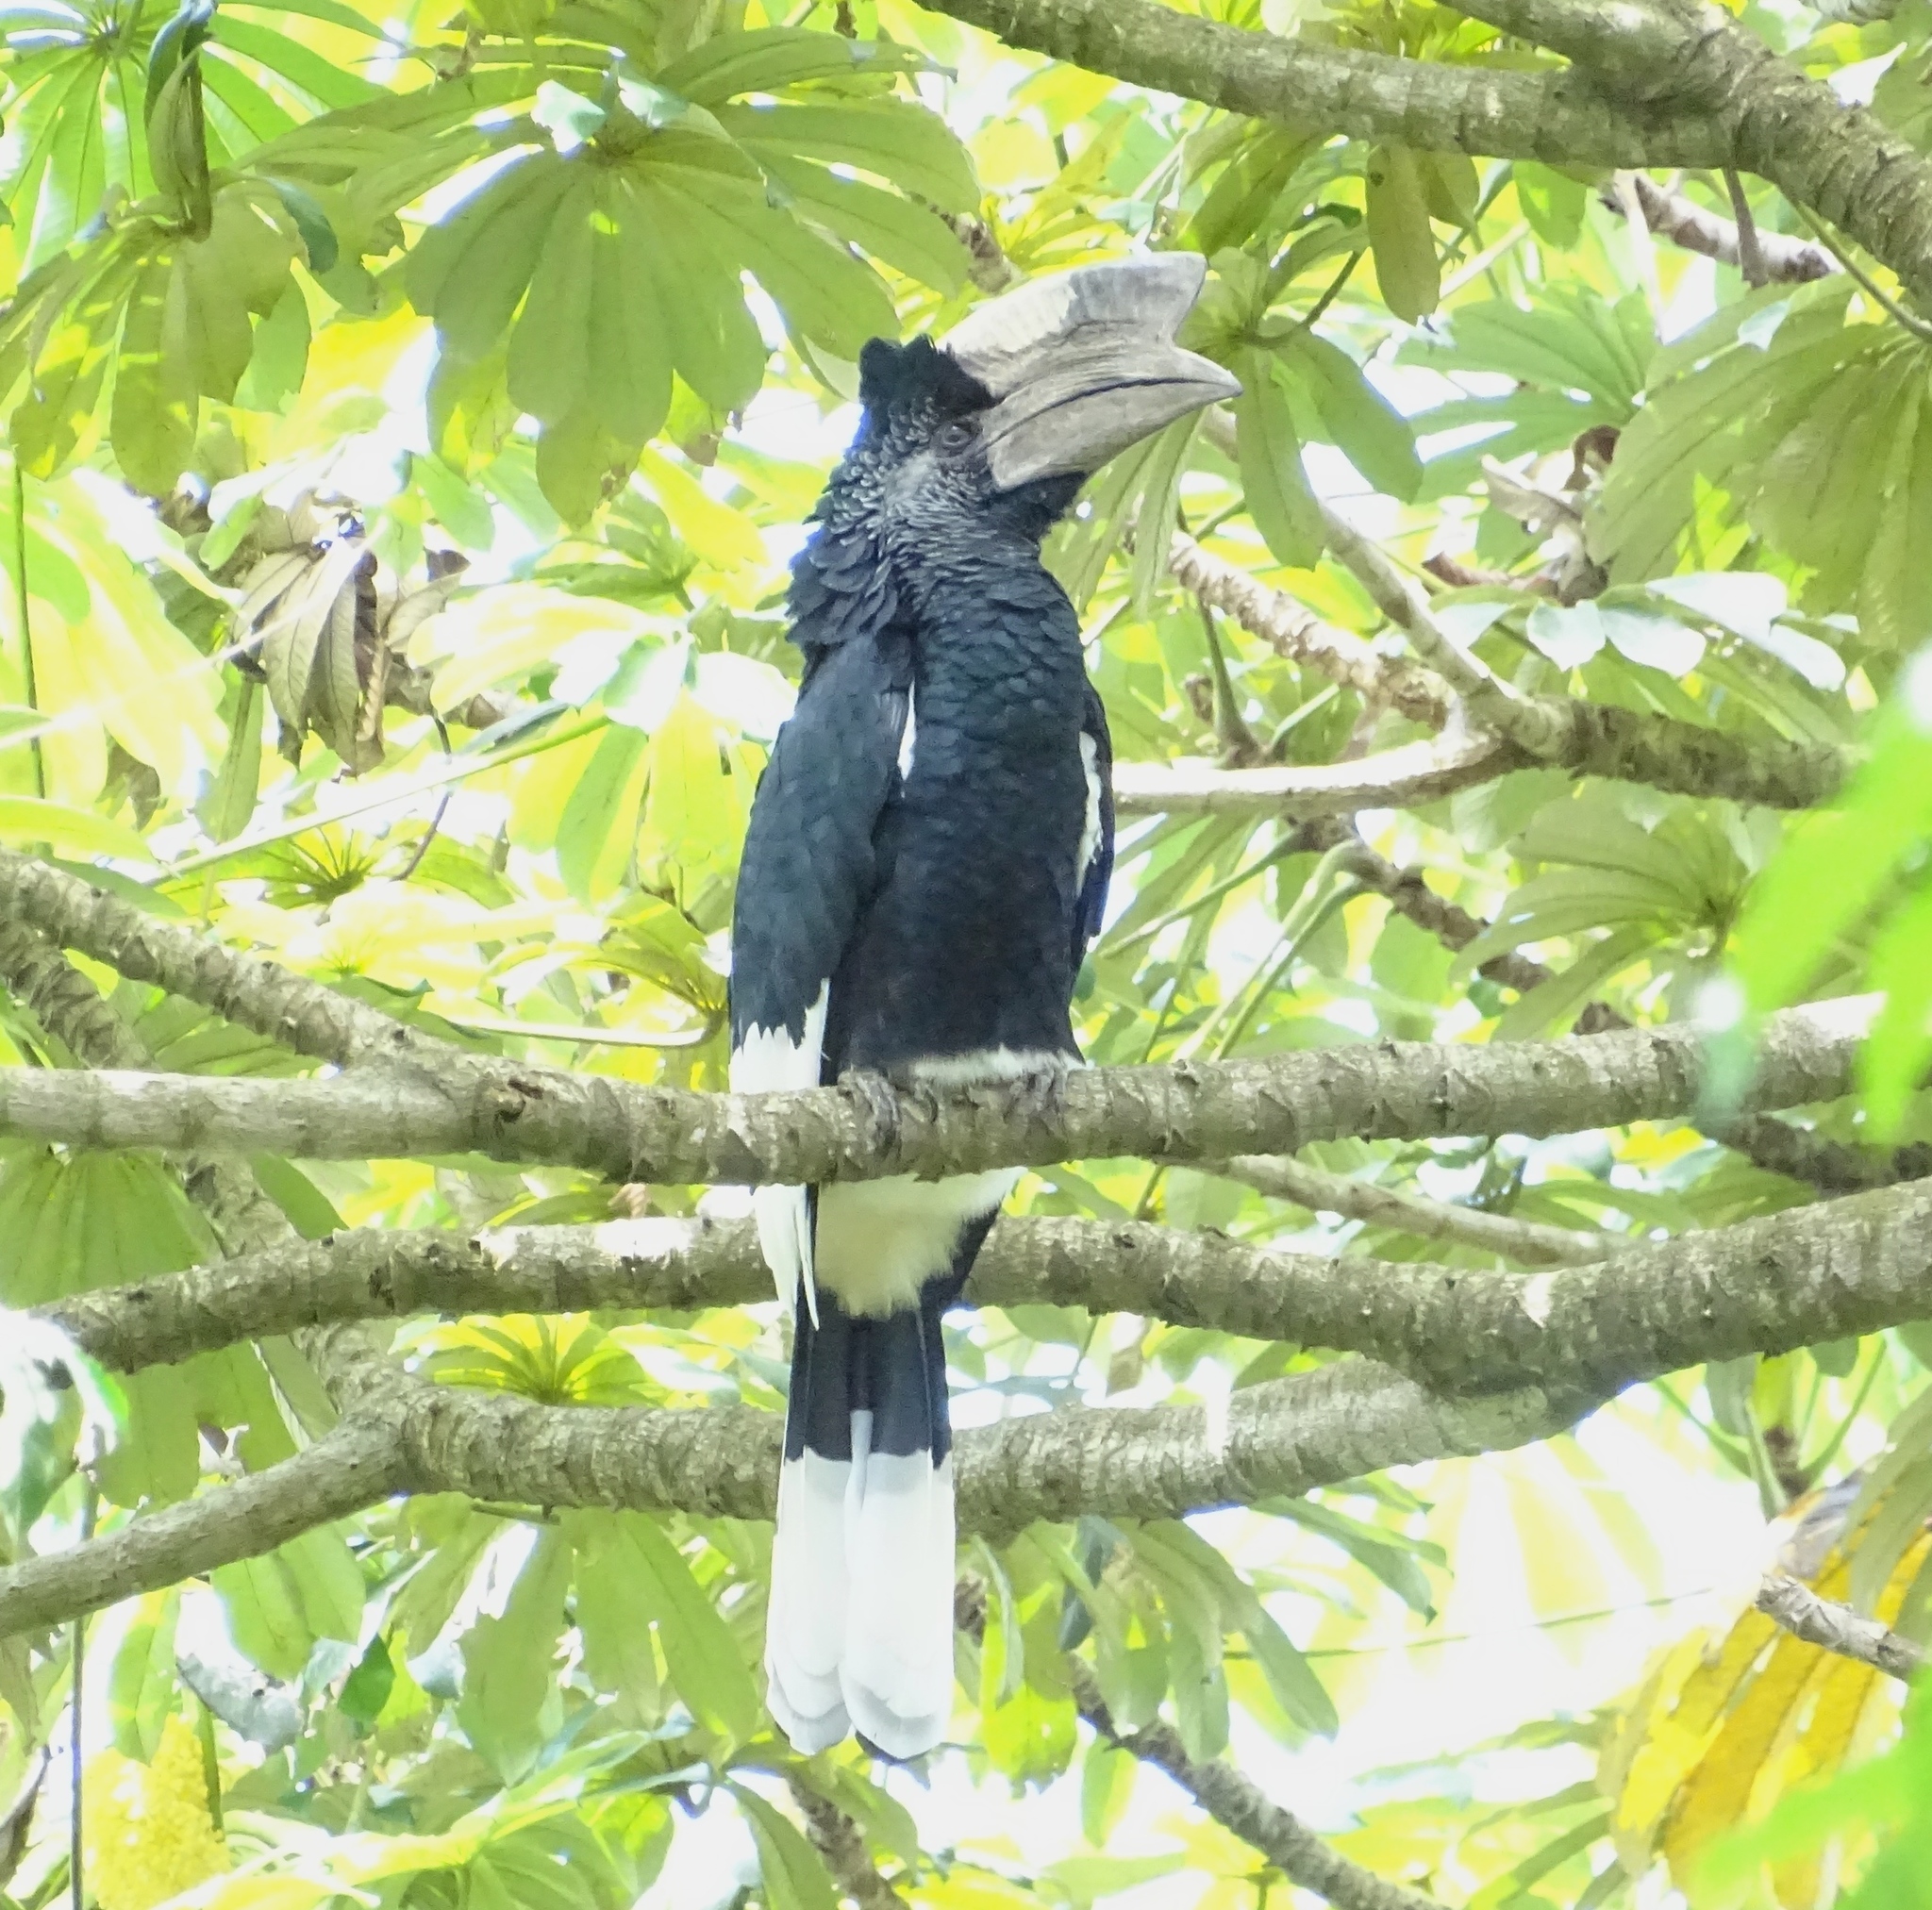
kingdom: Animalia
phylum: Chordata
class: Aves
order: Bucerotiformes
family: Bucerotidae
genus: Bycanistes
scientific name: Bycanistes subcylindricus
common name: Black-and-white-casqued hornbill
